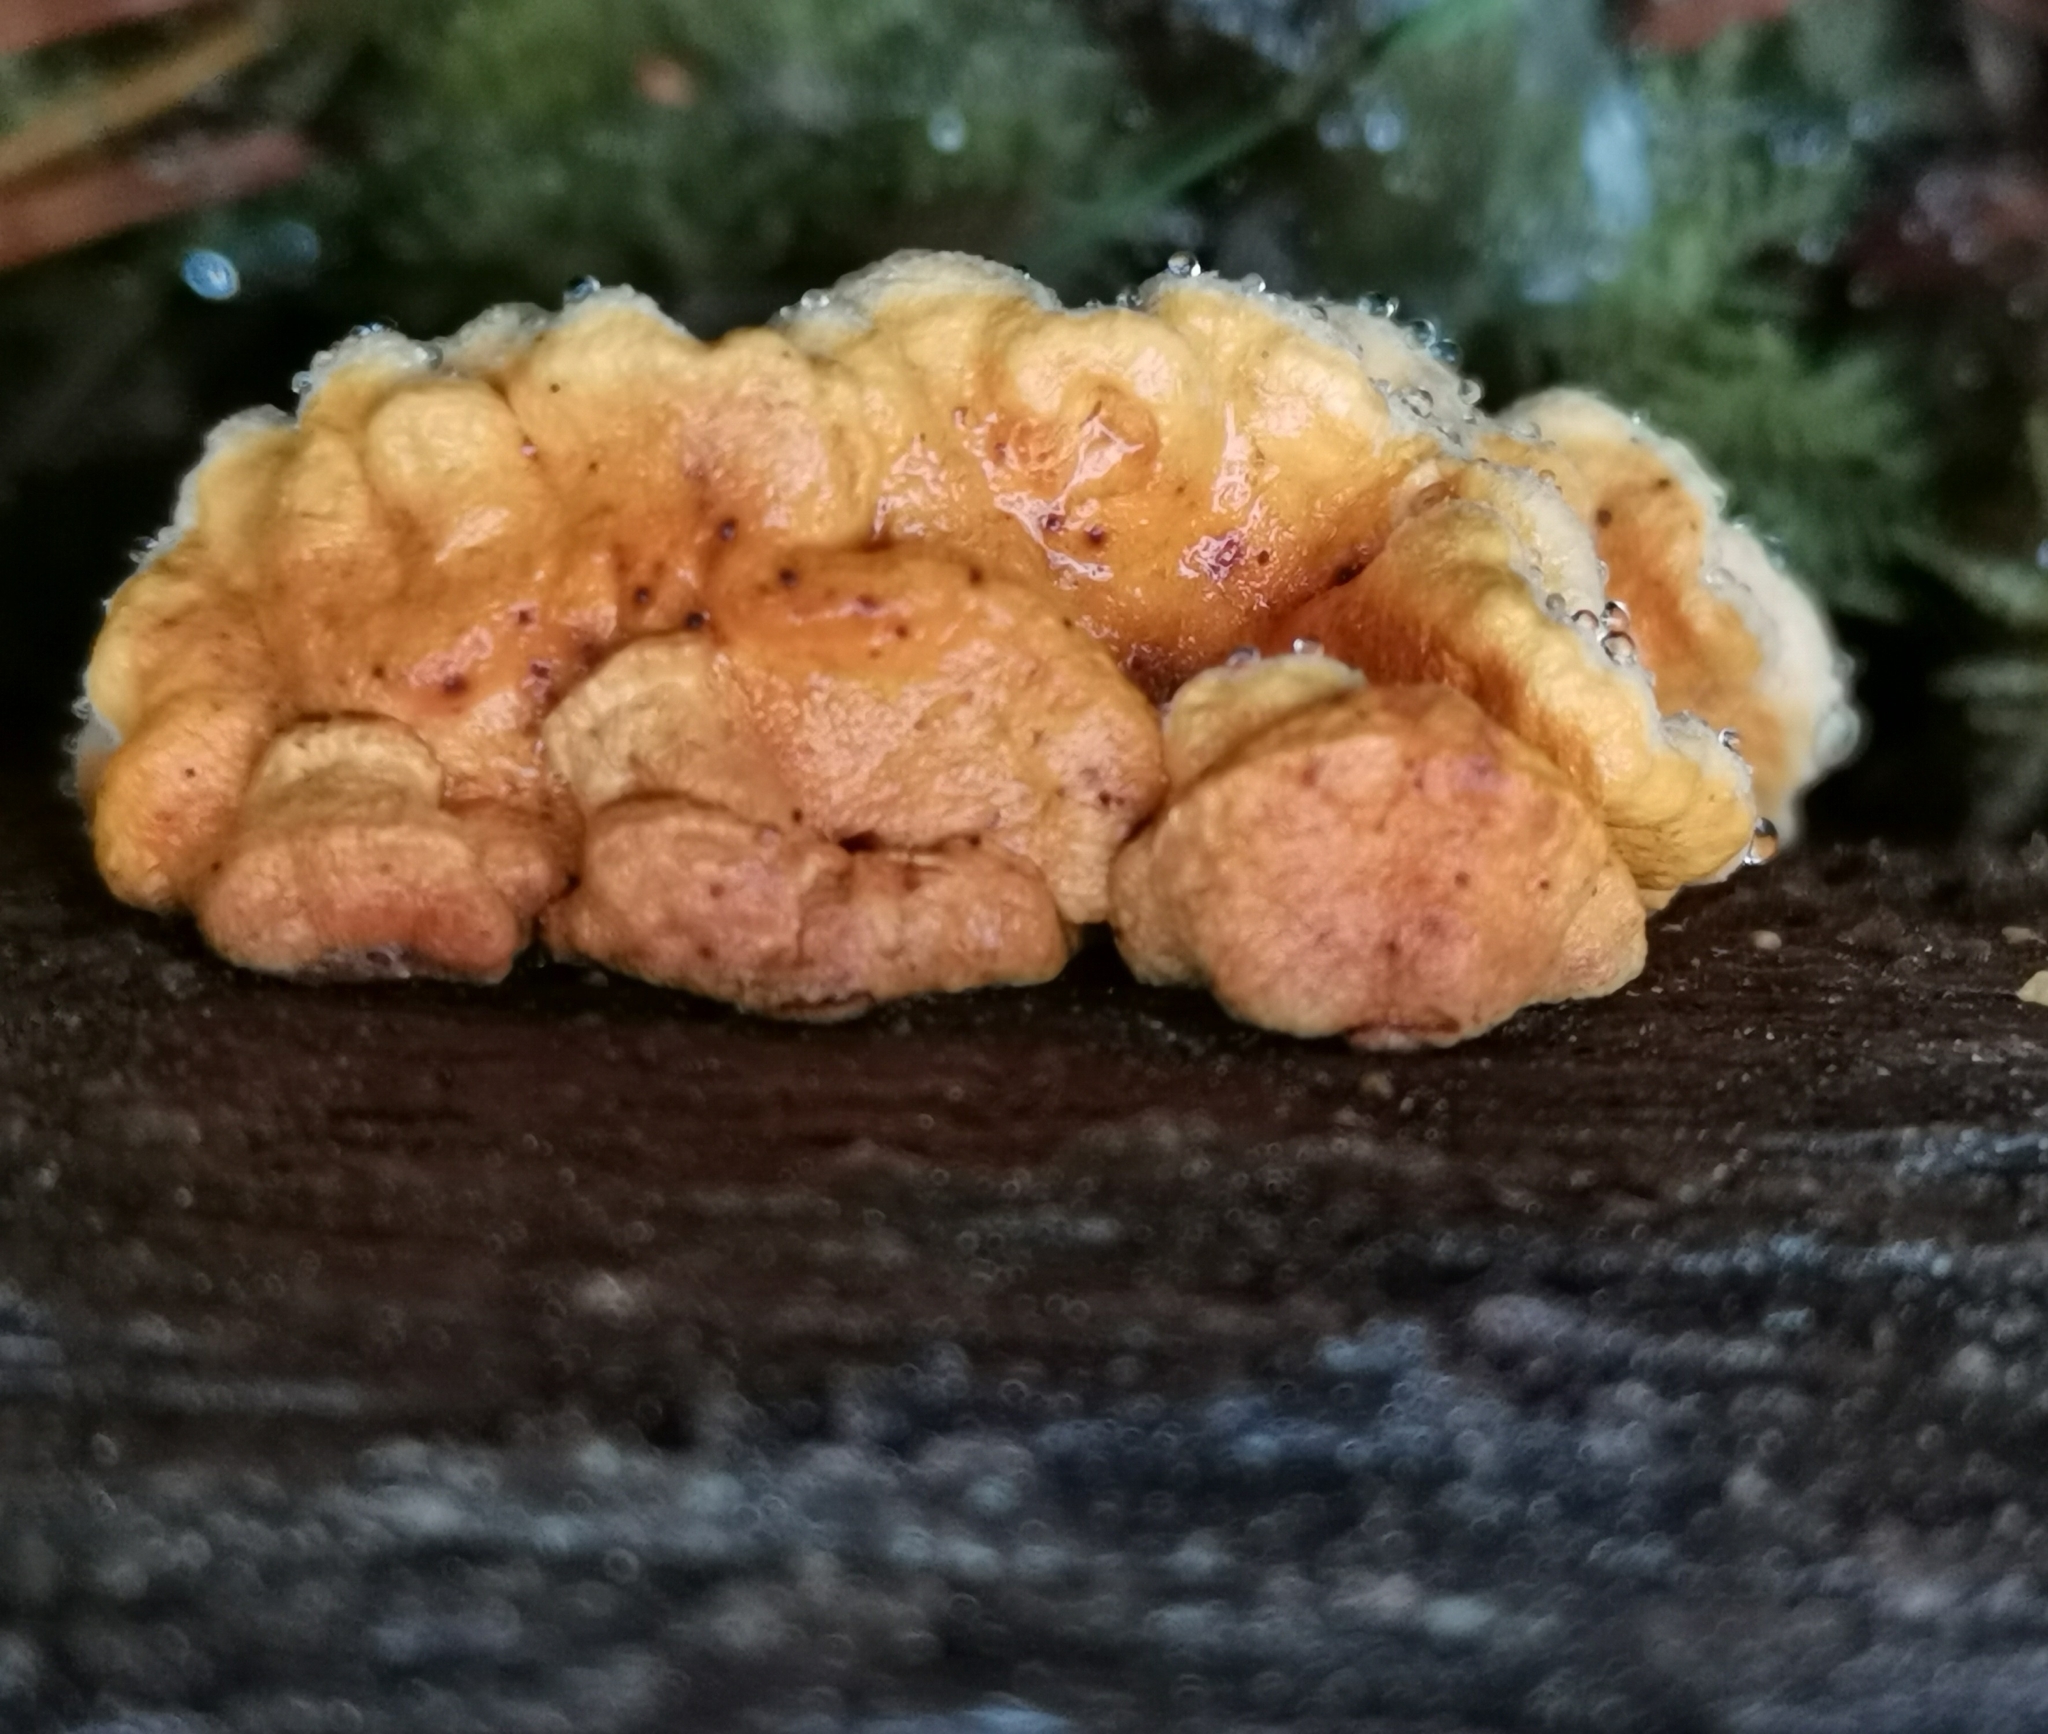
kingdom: Fungi
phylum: Basidiomycota
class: Agaricomycetes
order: Boletales
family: Tapinellaceae
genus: Pseudomerulius
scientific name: Pseudomerulius aureus
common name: Orange netcrust
